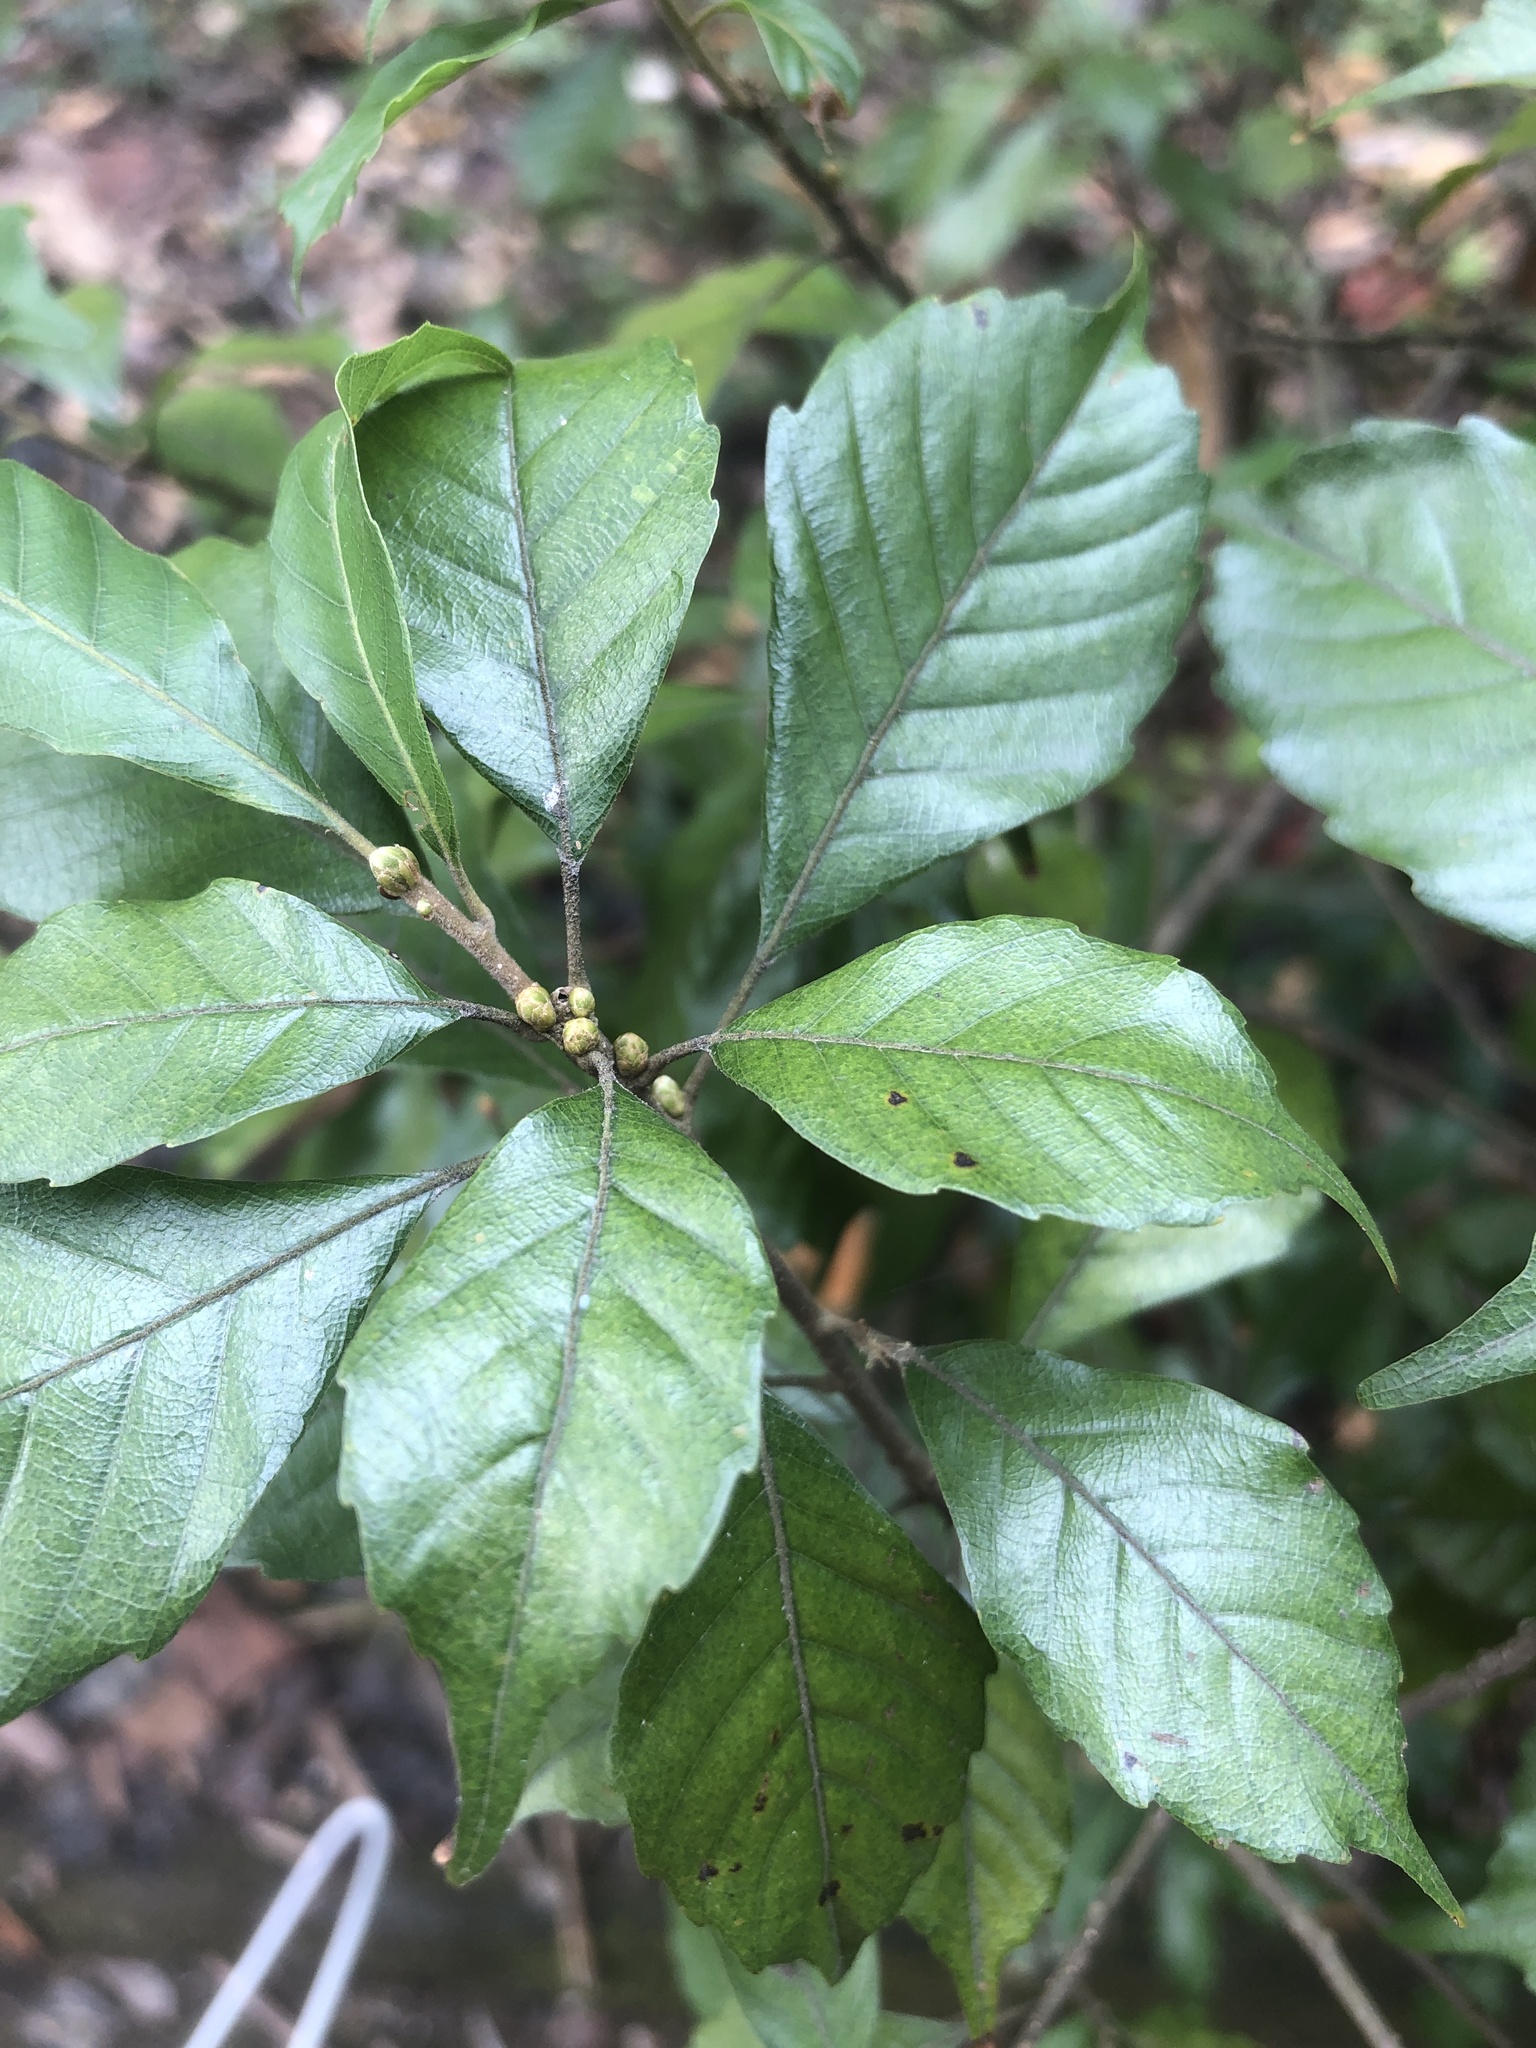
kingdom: Plantae
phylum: Tracheophyta
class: Magnoliopsida
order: Fagales
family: Fagaceae
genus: Lithocarpus
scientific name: Lithocarpus konishii
